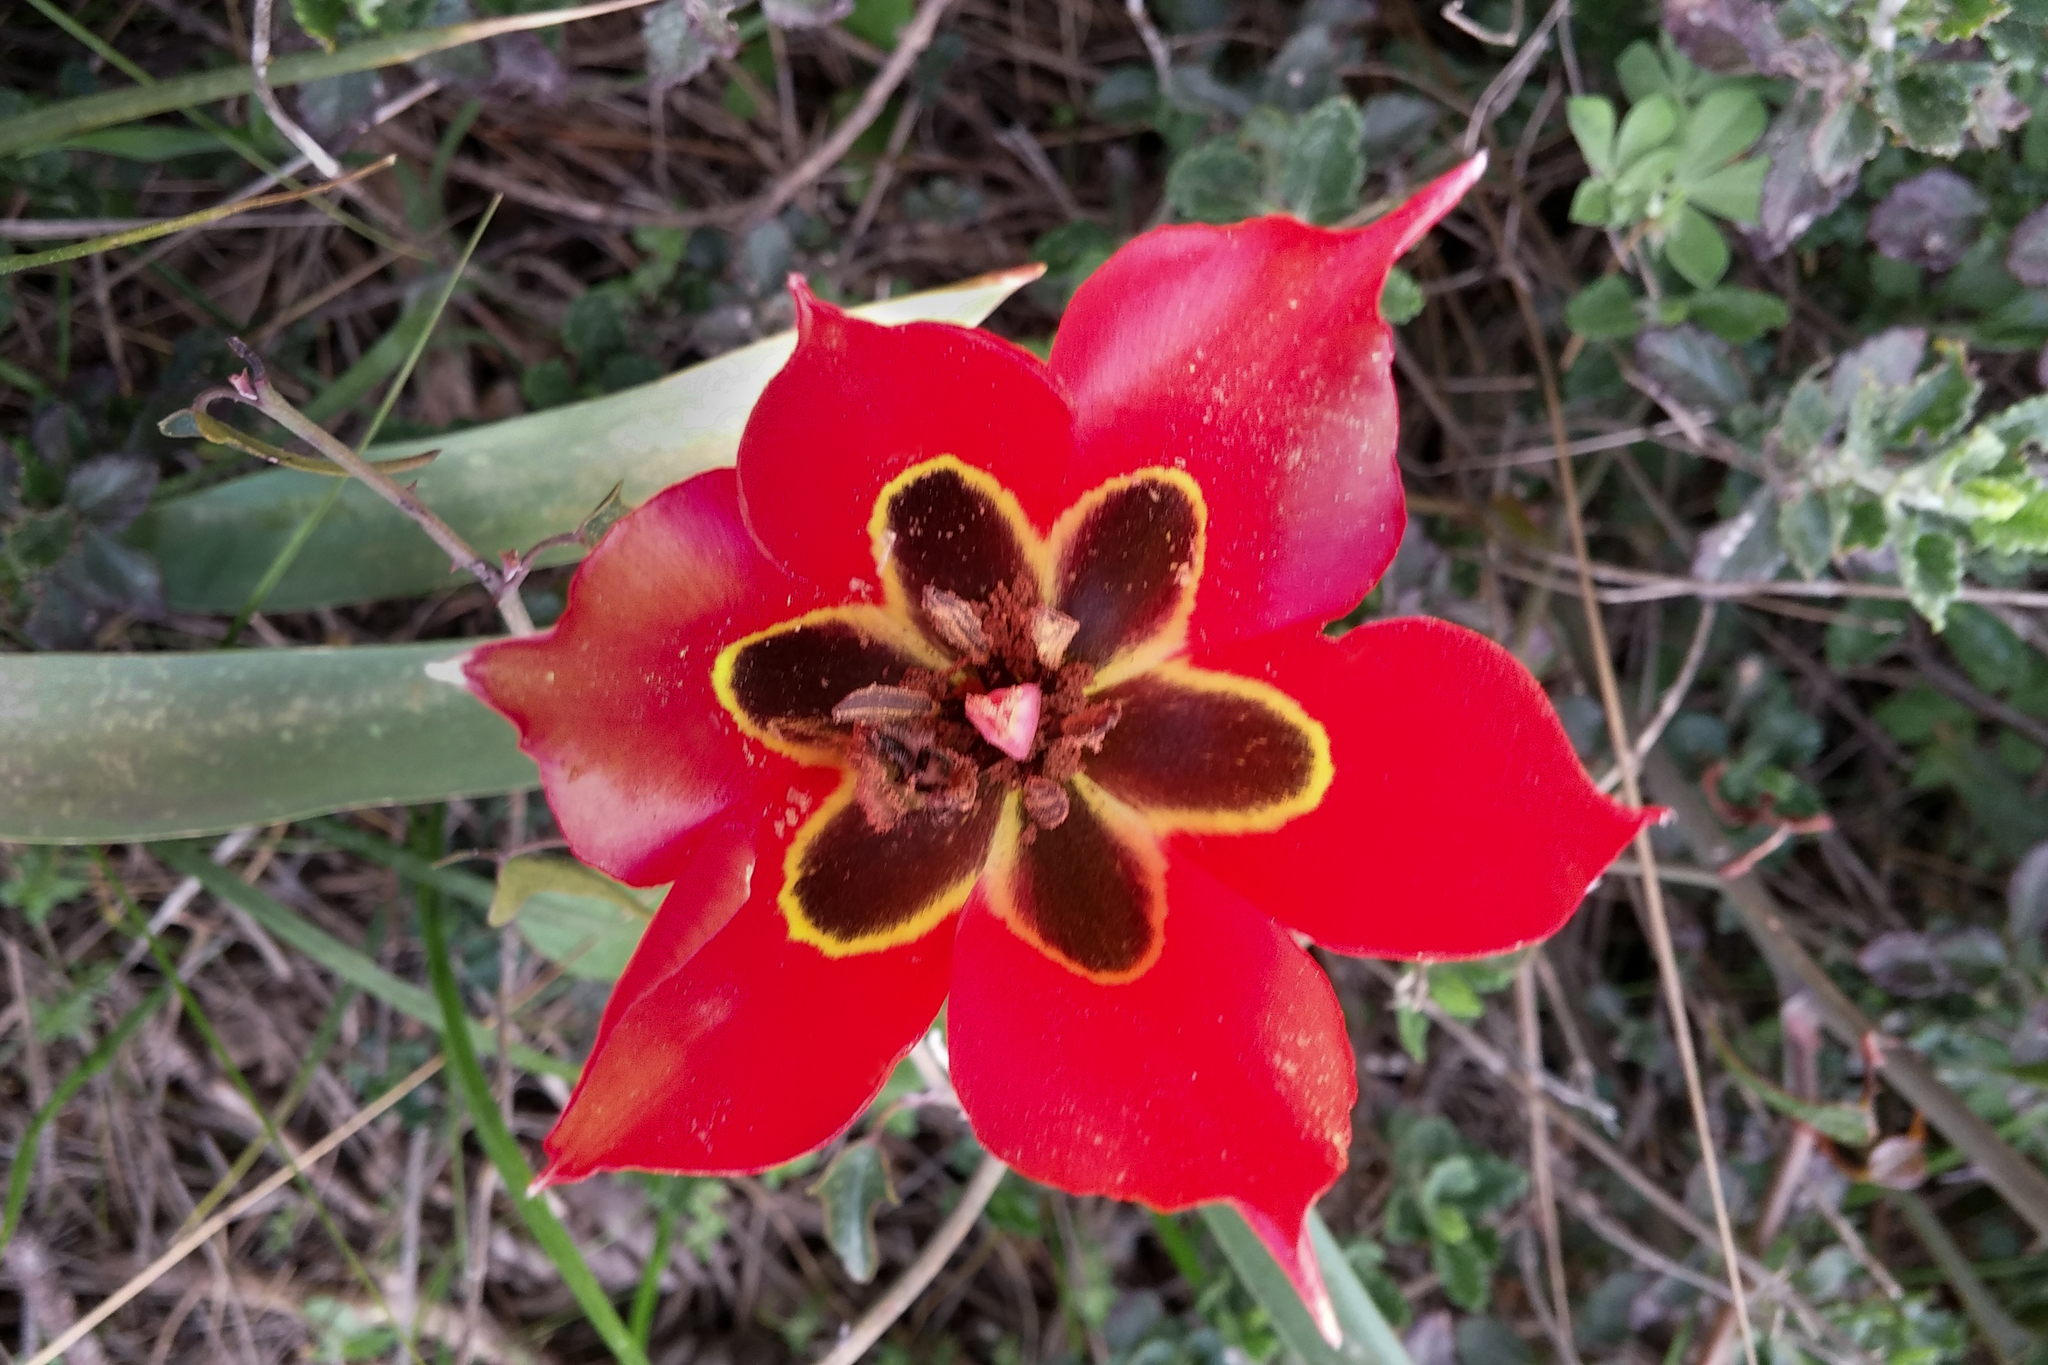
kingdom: Plantae
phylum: Tracheophyta
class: Liliopsida
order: Liliales
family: Liliaceae
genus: Tulipa
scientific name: Tulipa agenensis
